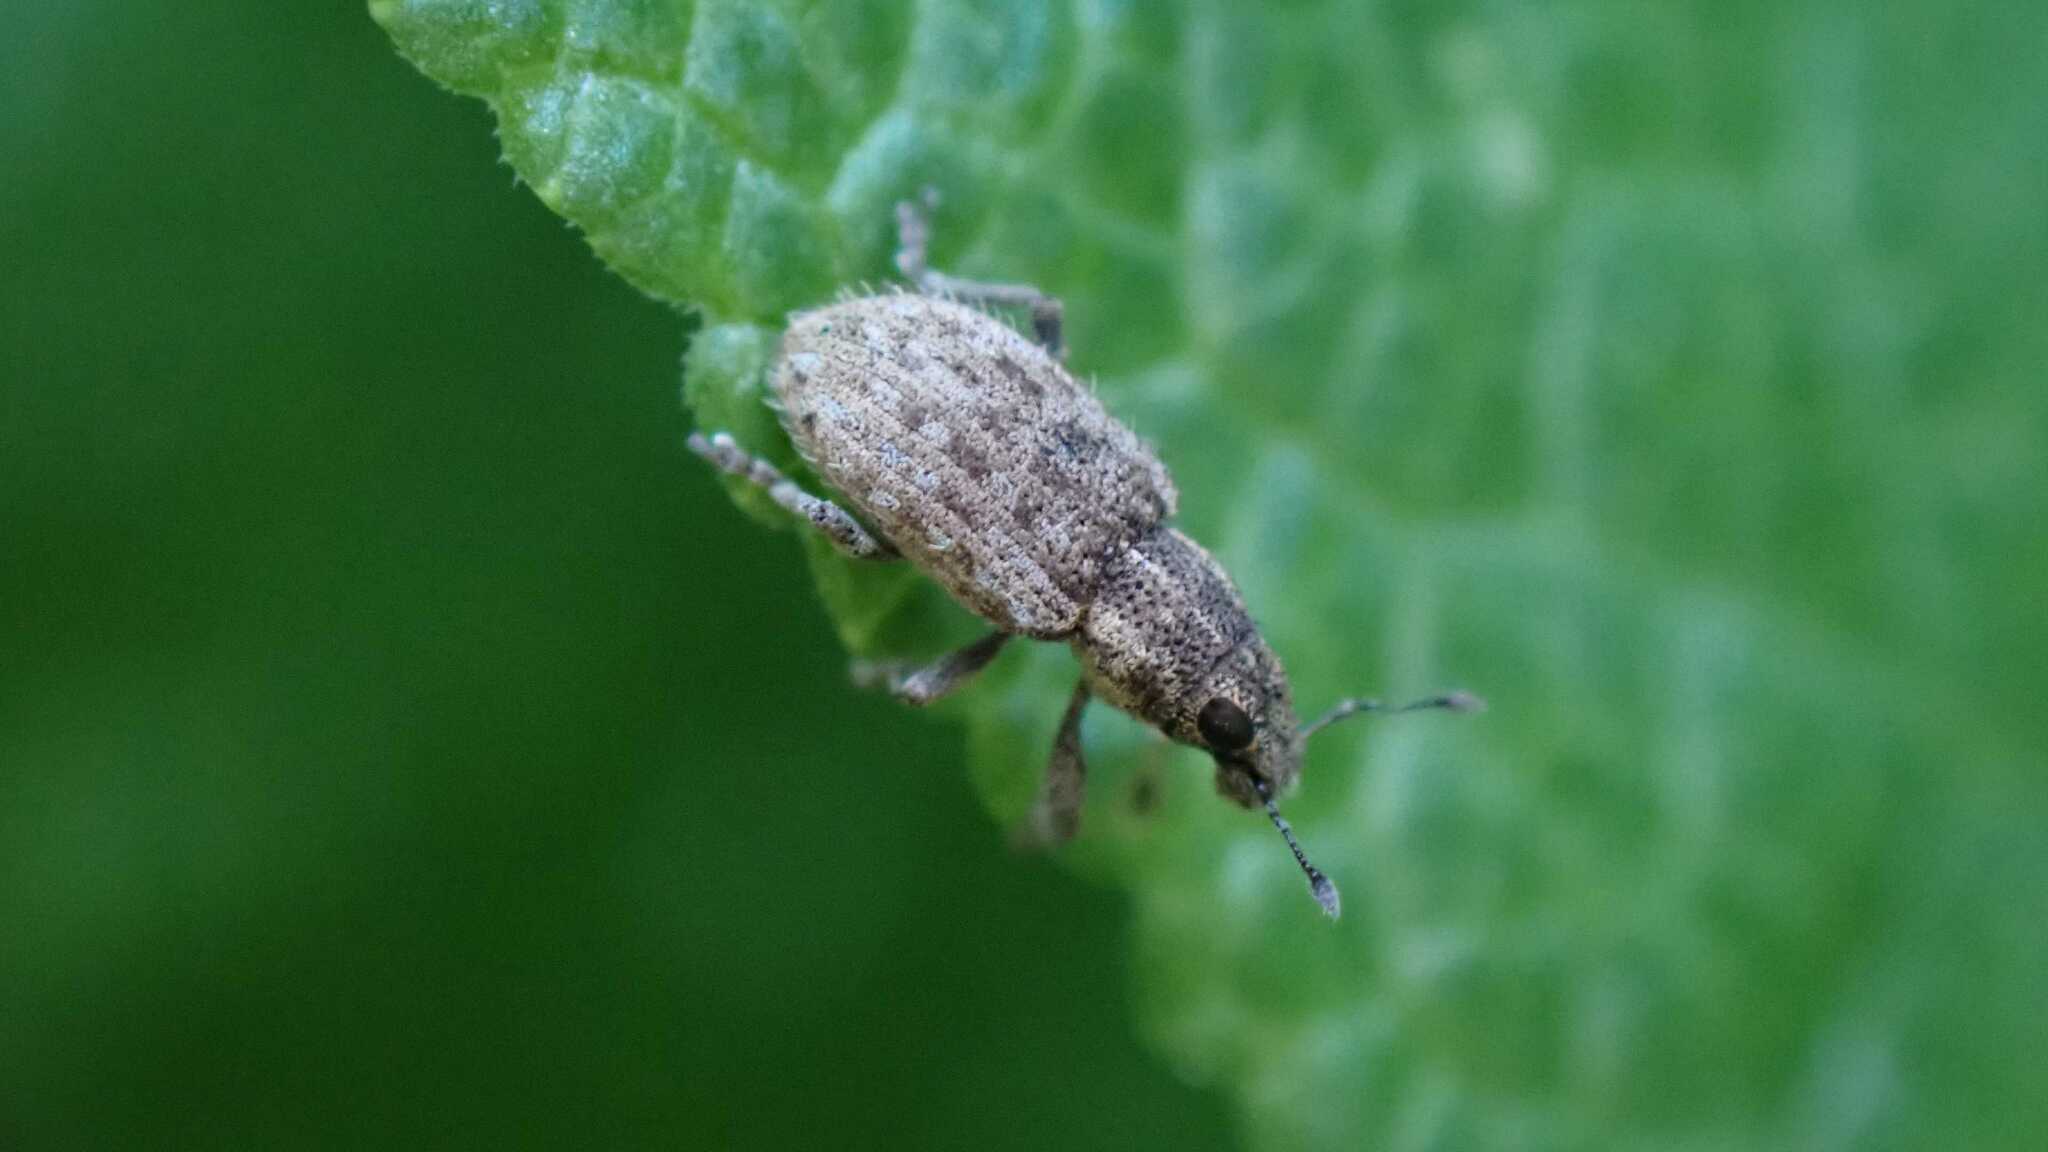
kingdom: Animalia
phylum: Arthropoda
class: Insecta
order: Coleoptera
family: Curculionidae
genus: Sitona
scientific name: Sitona hispidulus
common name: Clover weevil
